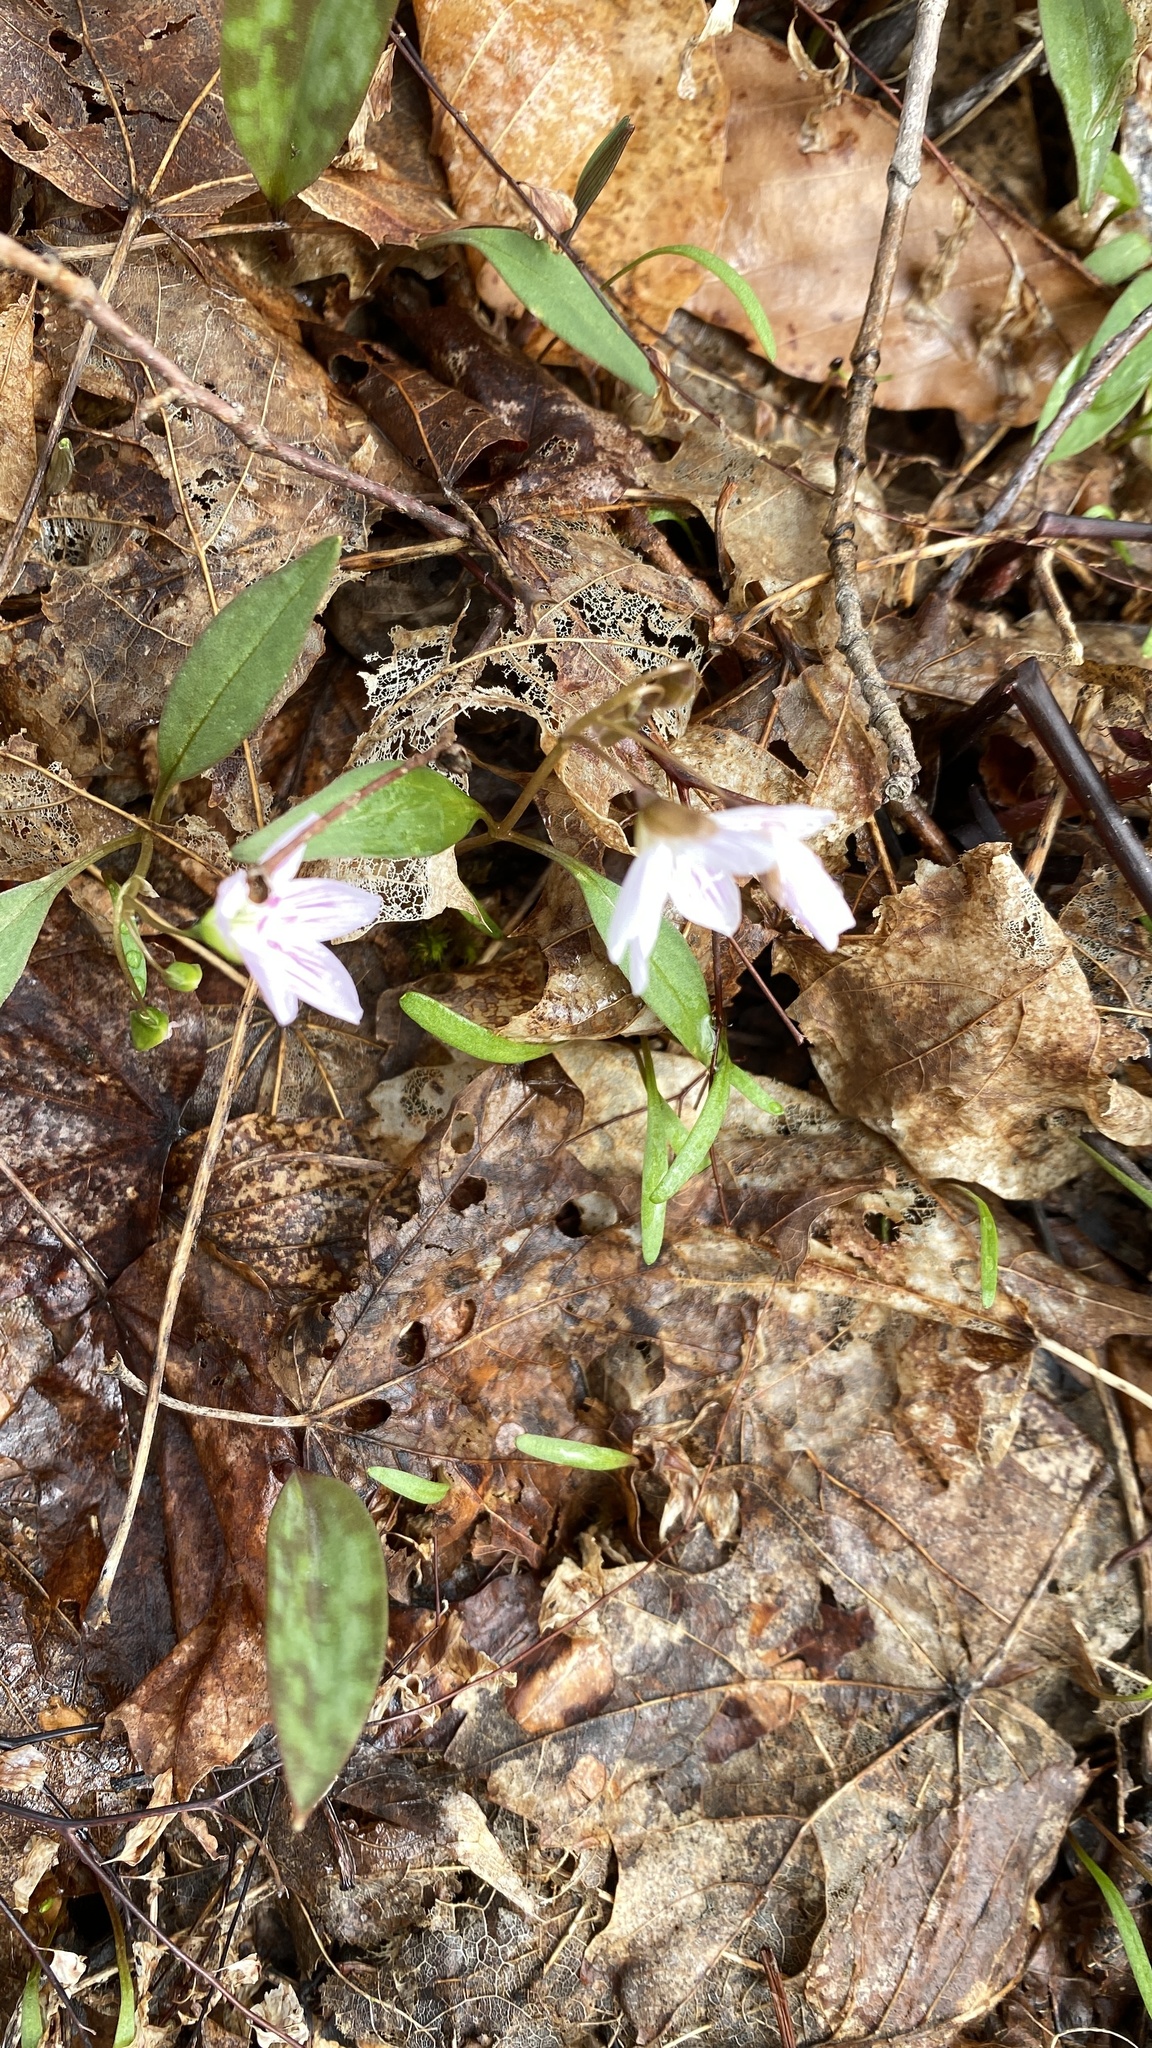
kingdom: Plantae
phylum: Tracheophyta
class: Magnoliopsida
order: Caryophyllales
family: Montiaceae
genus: Claytonia
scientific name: Claytonia caroliniana
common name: Carolina spring beauty
